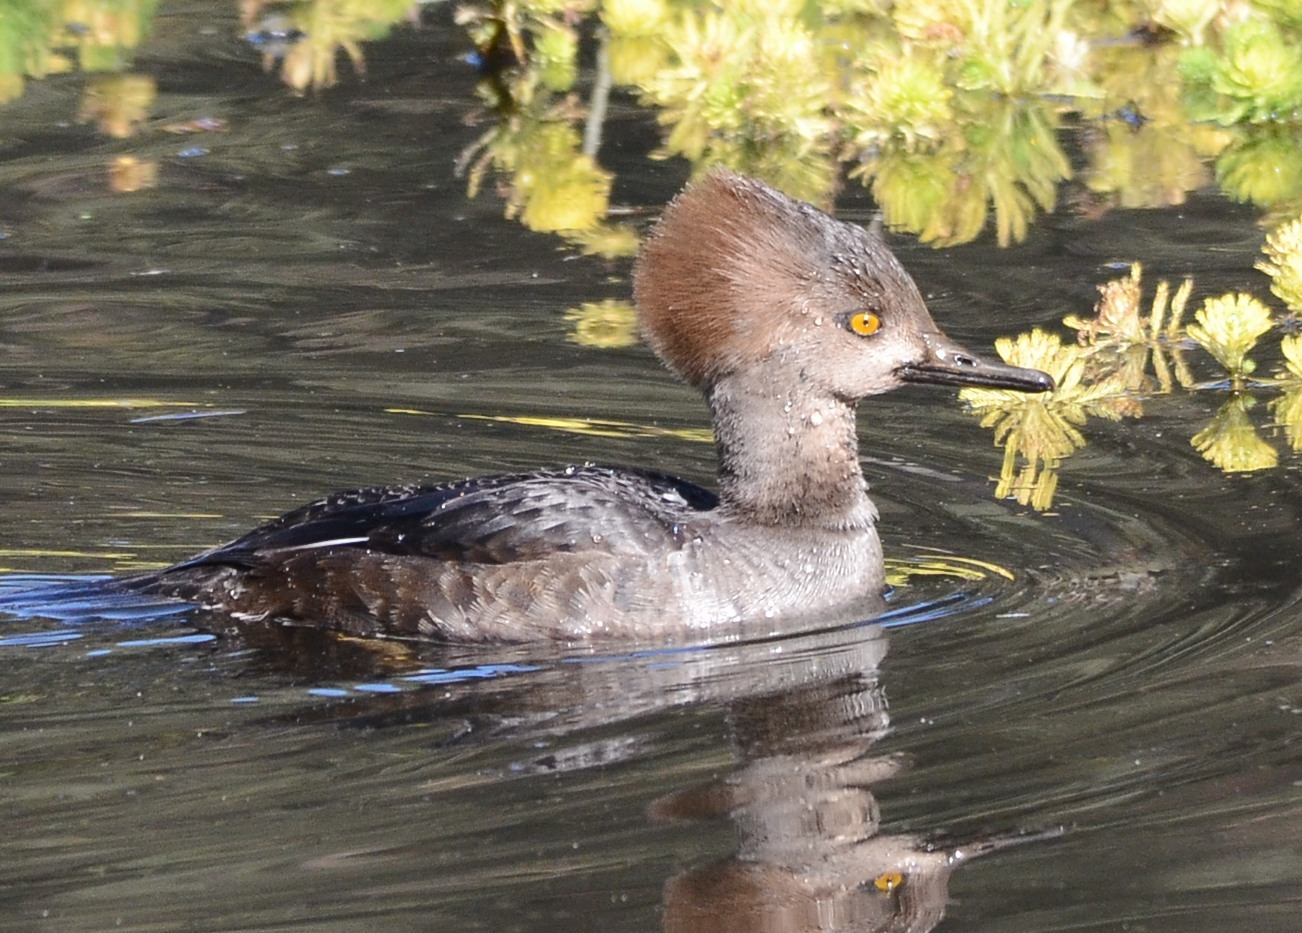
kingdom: Animalia
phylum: Chordata
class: Aves
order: Anseriformes
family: Anatidae
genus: Lophodytes
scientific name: Lophodytes cucullatus
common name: Hooded merganser
